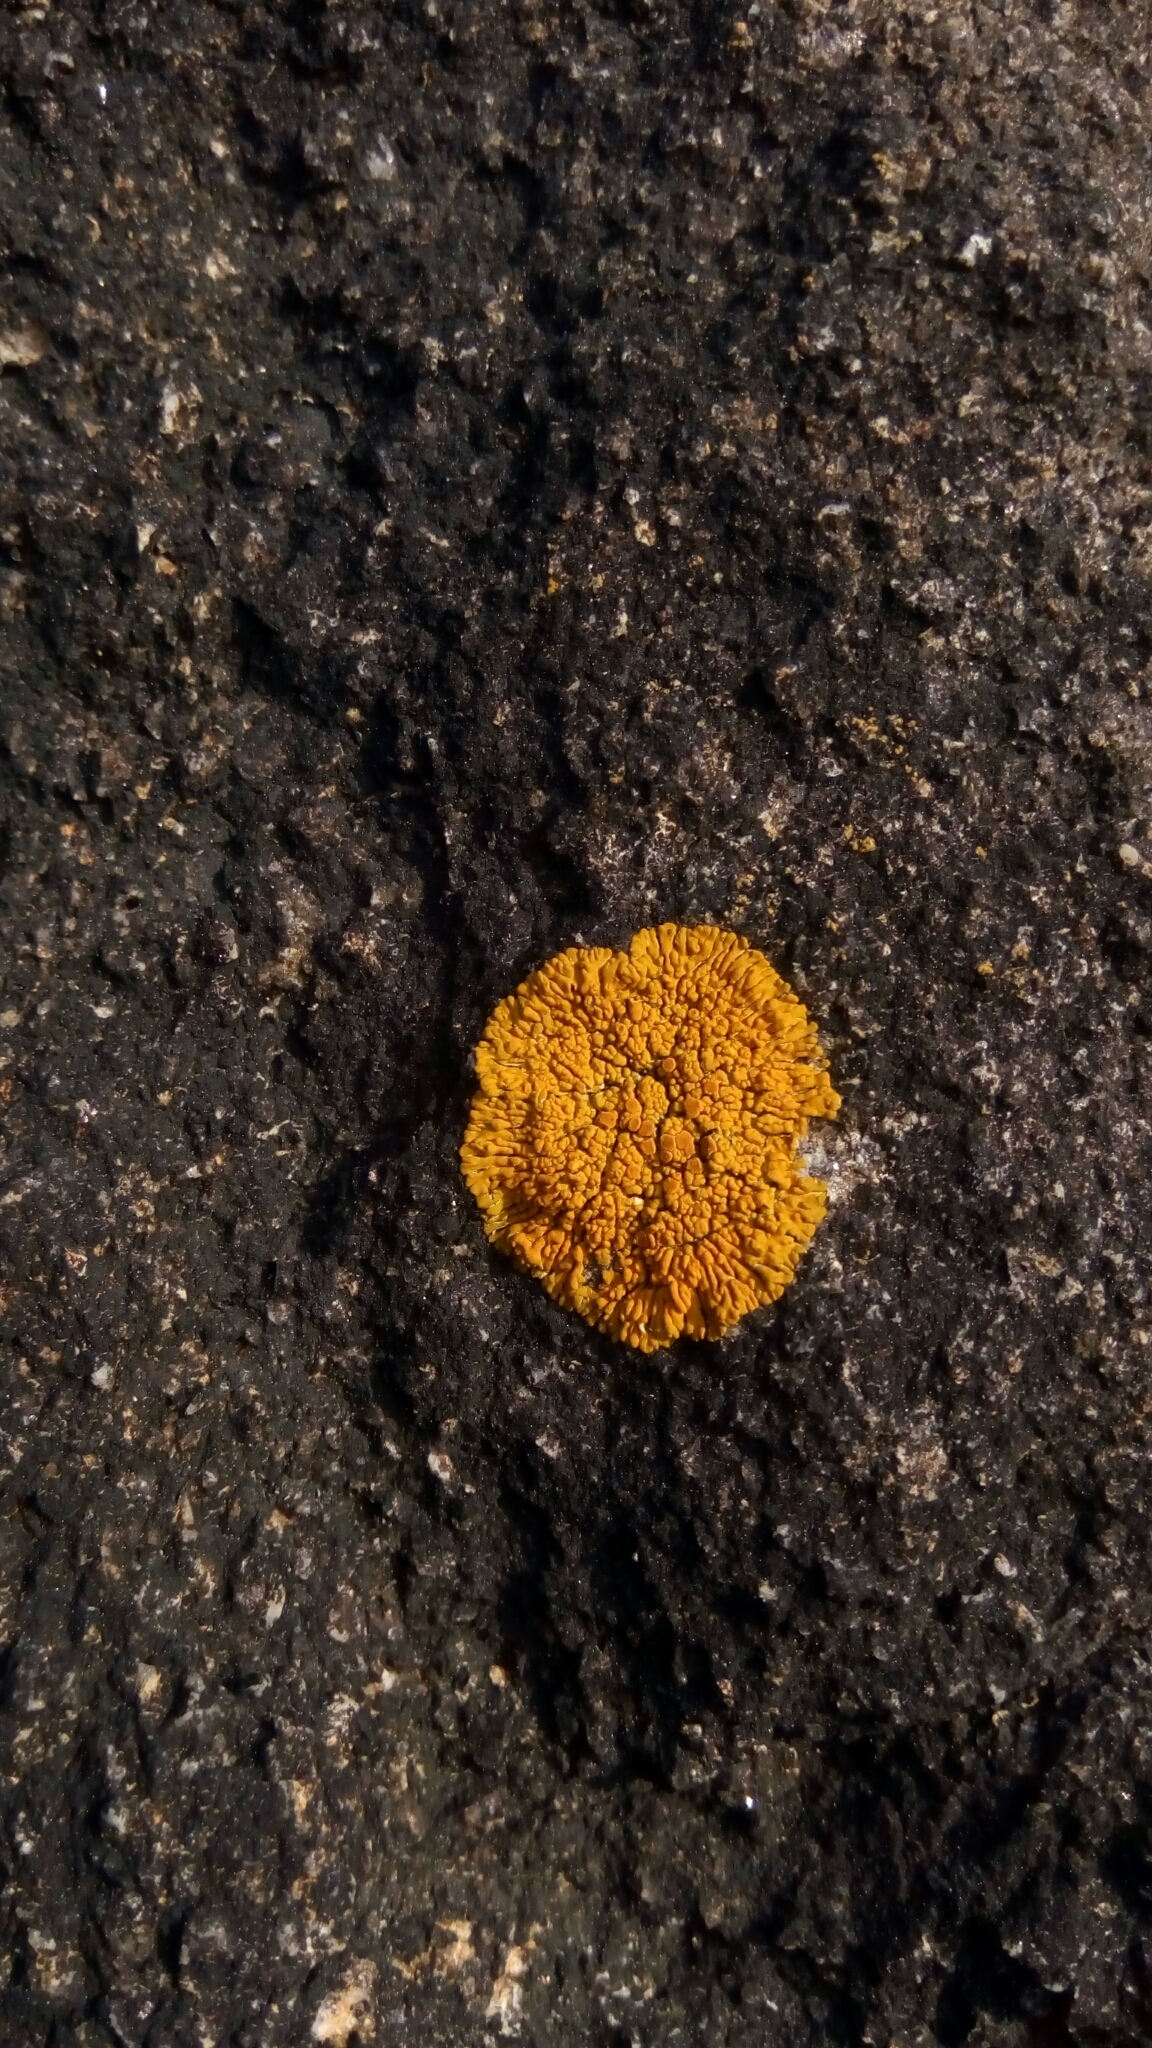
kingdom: Fungi
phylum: Ascomycota
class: Lecanoromycetes
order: Teloschistales
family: Teloschistaceae
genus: Xanthoria
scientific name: Xanthoria elegans
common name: Elegant sunburst lichen
